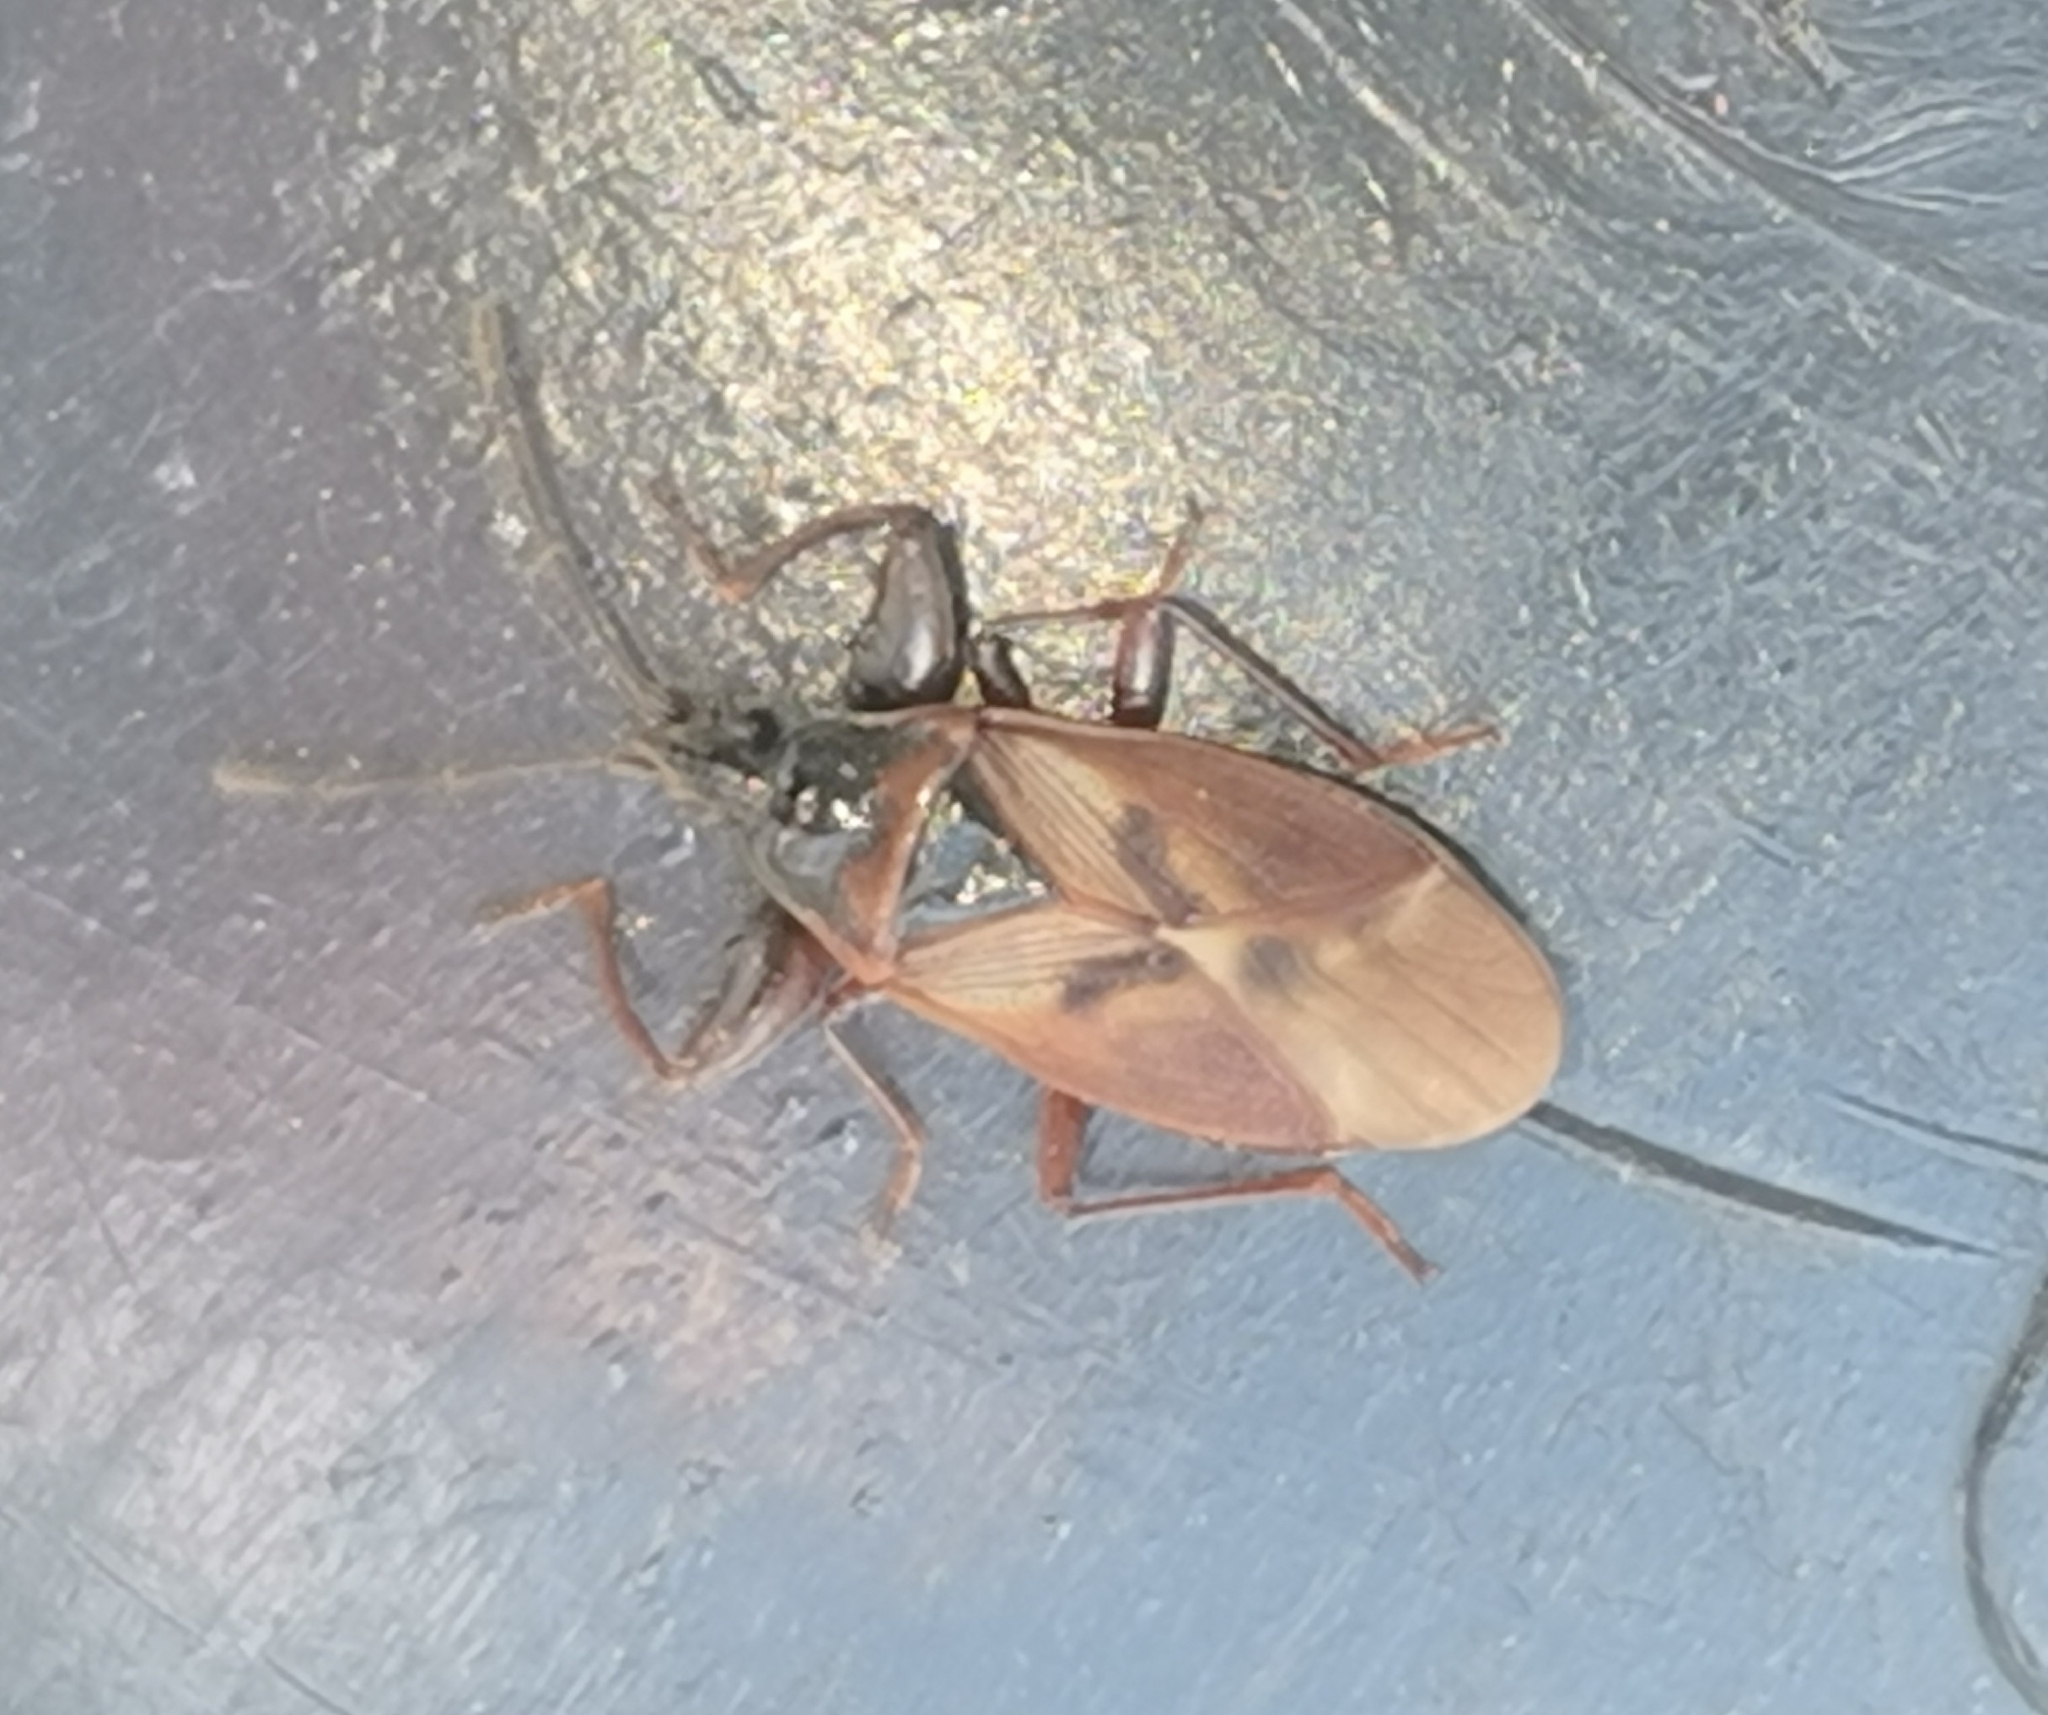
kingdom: Animalia
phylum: Arthropoda
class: Insecta
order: Hemiptera
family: Rhyparochromidae
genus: Gastrodes
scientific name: Gastrodes abietum
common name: Spruce cone bug
